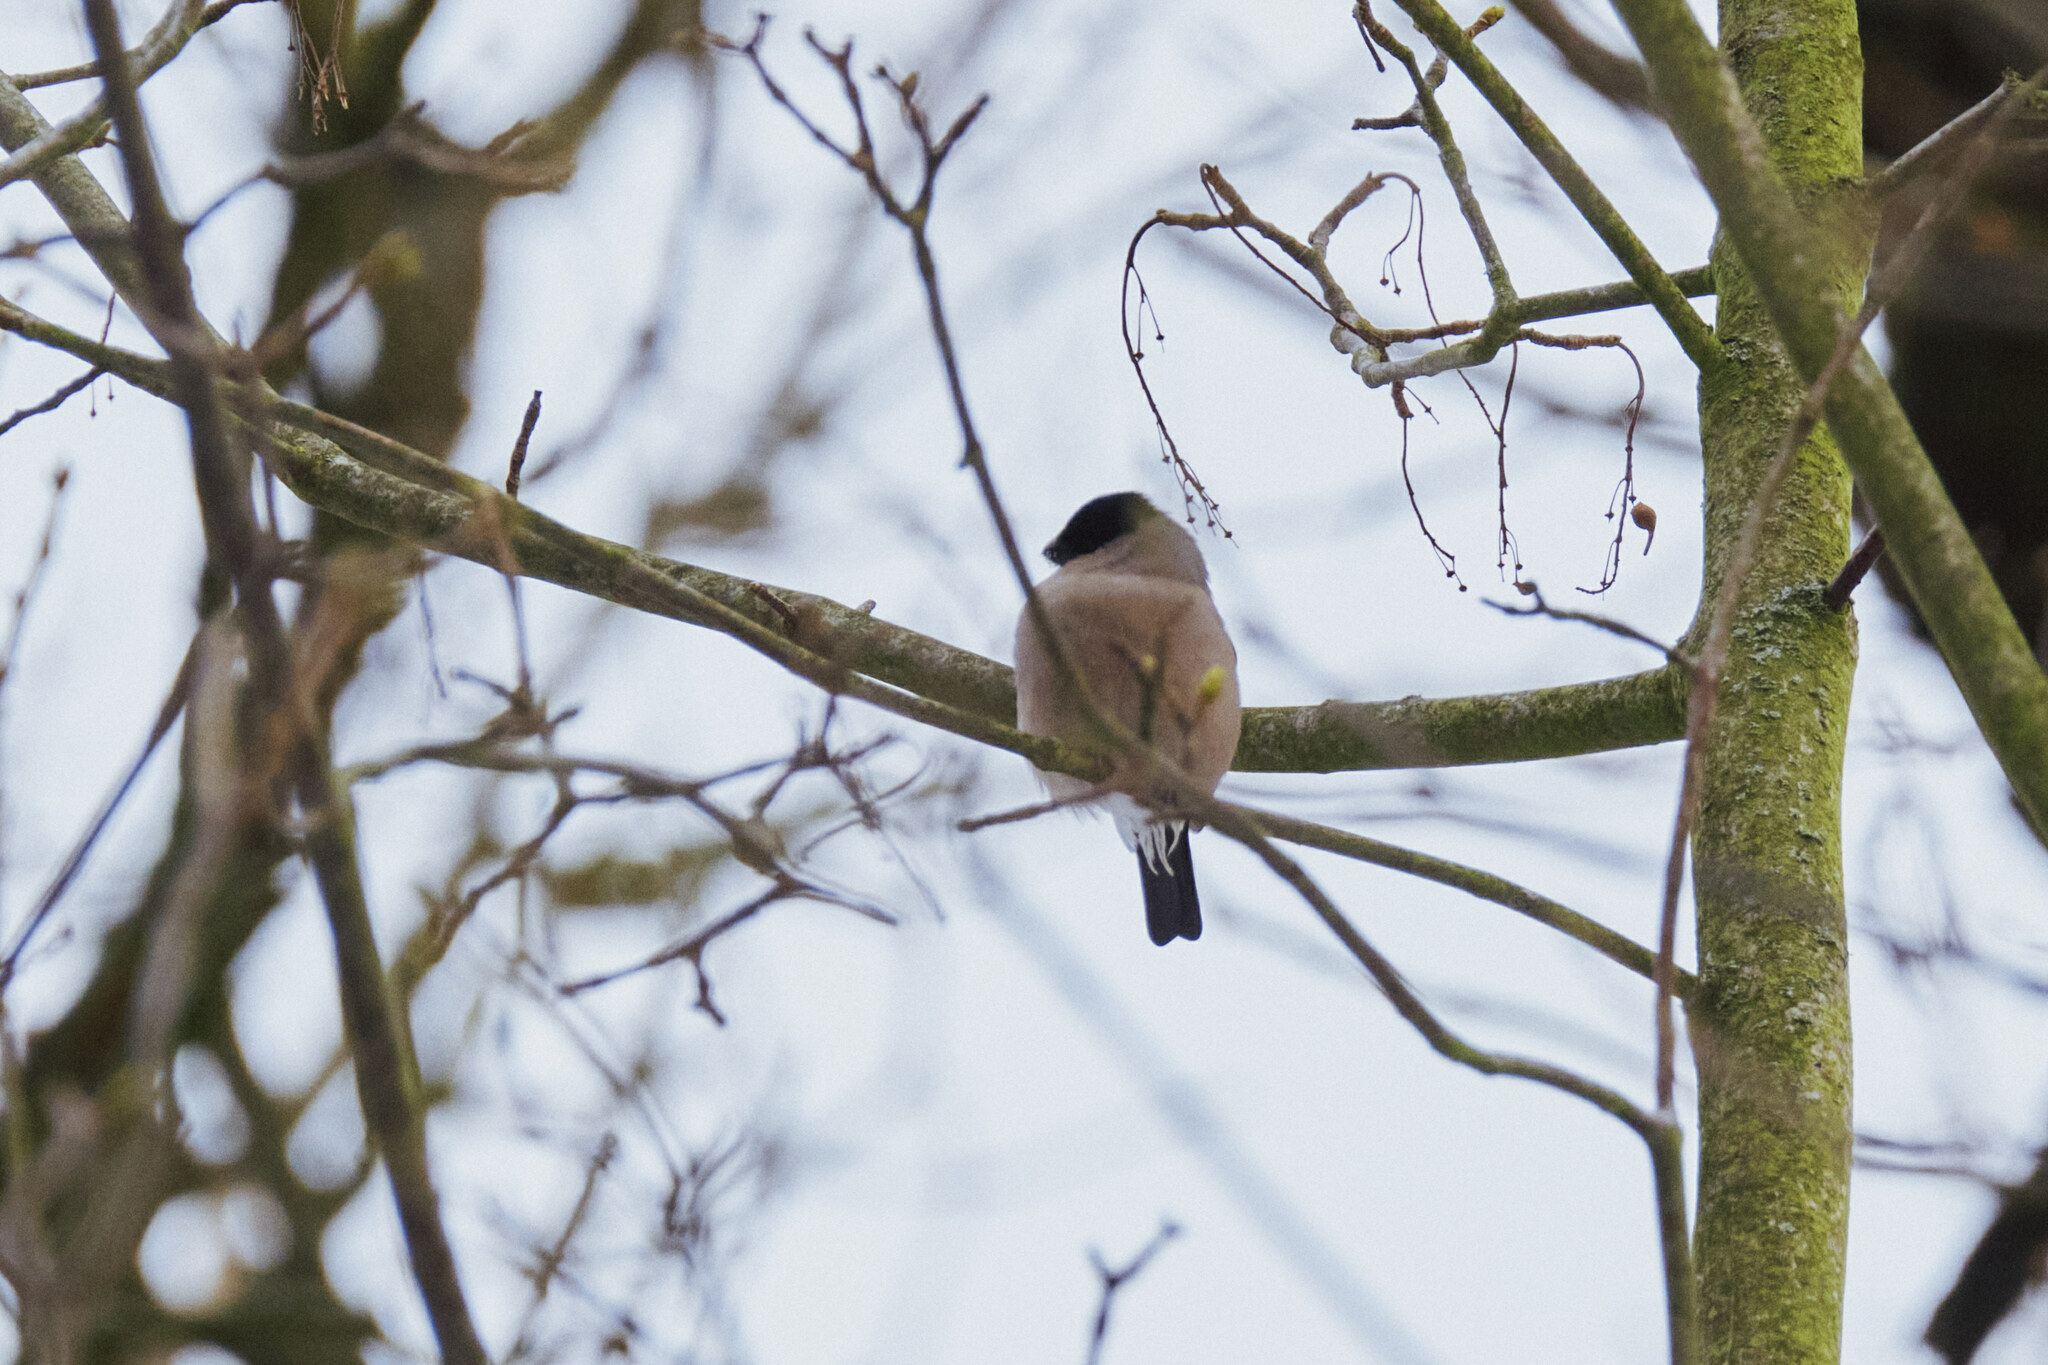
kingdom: Animalia
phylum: Chordata
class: Aves
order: Passeriformes
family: Fringillidae
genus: Pyrrhula
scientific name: Pyrrhula pyrrhula
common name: Eurasian bullfinch
